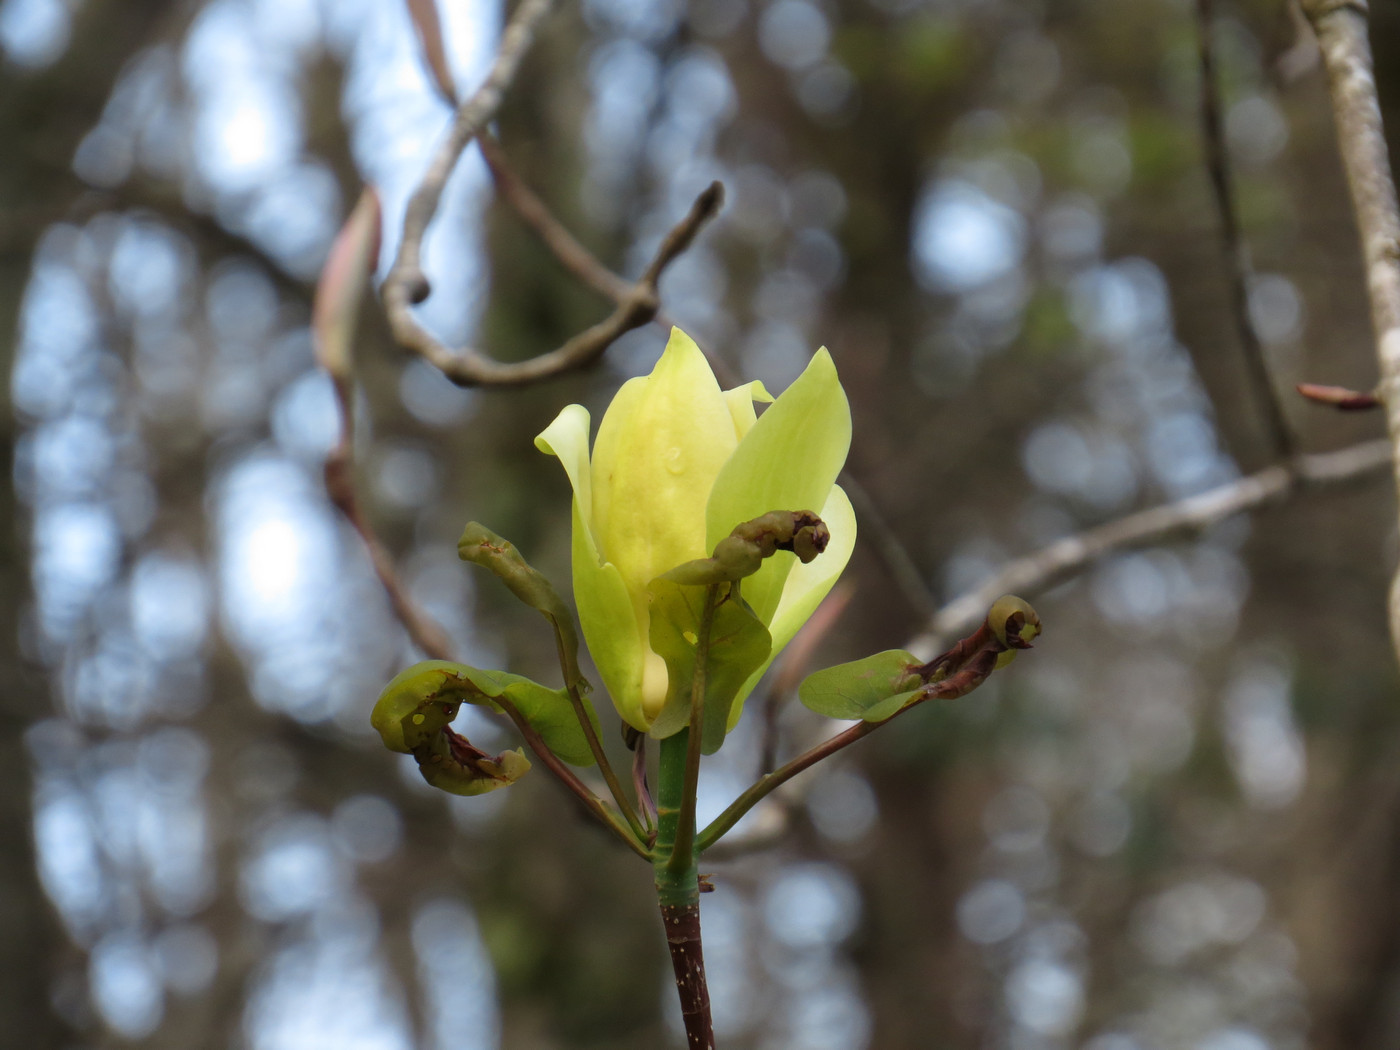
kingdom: Plantae
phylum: Tracheophyta
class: Magnoliopsida
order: Magnoliales
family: Magnoliaceae
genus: Magnolia
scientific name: Magnolia fraseri
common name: Fraser's magnolia
